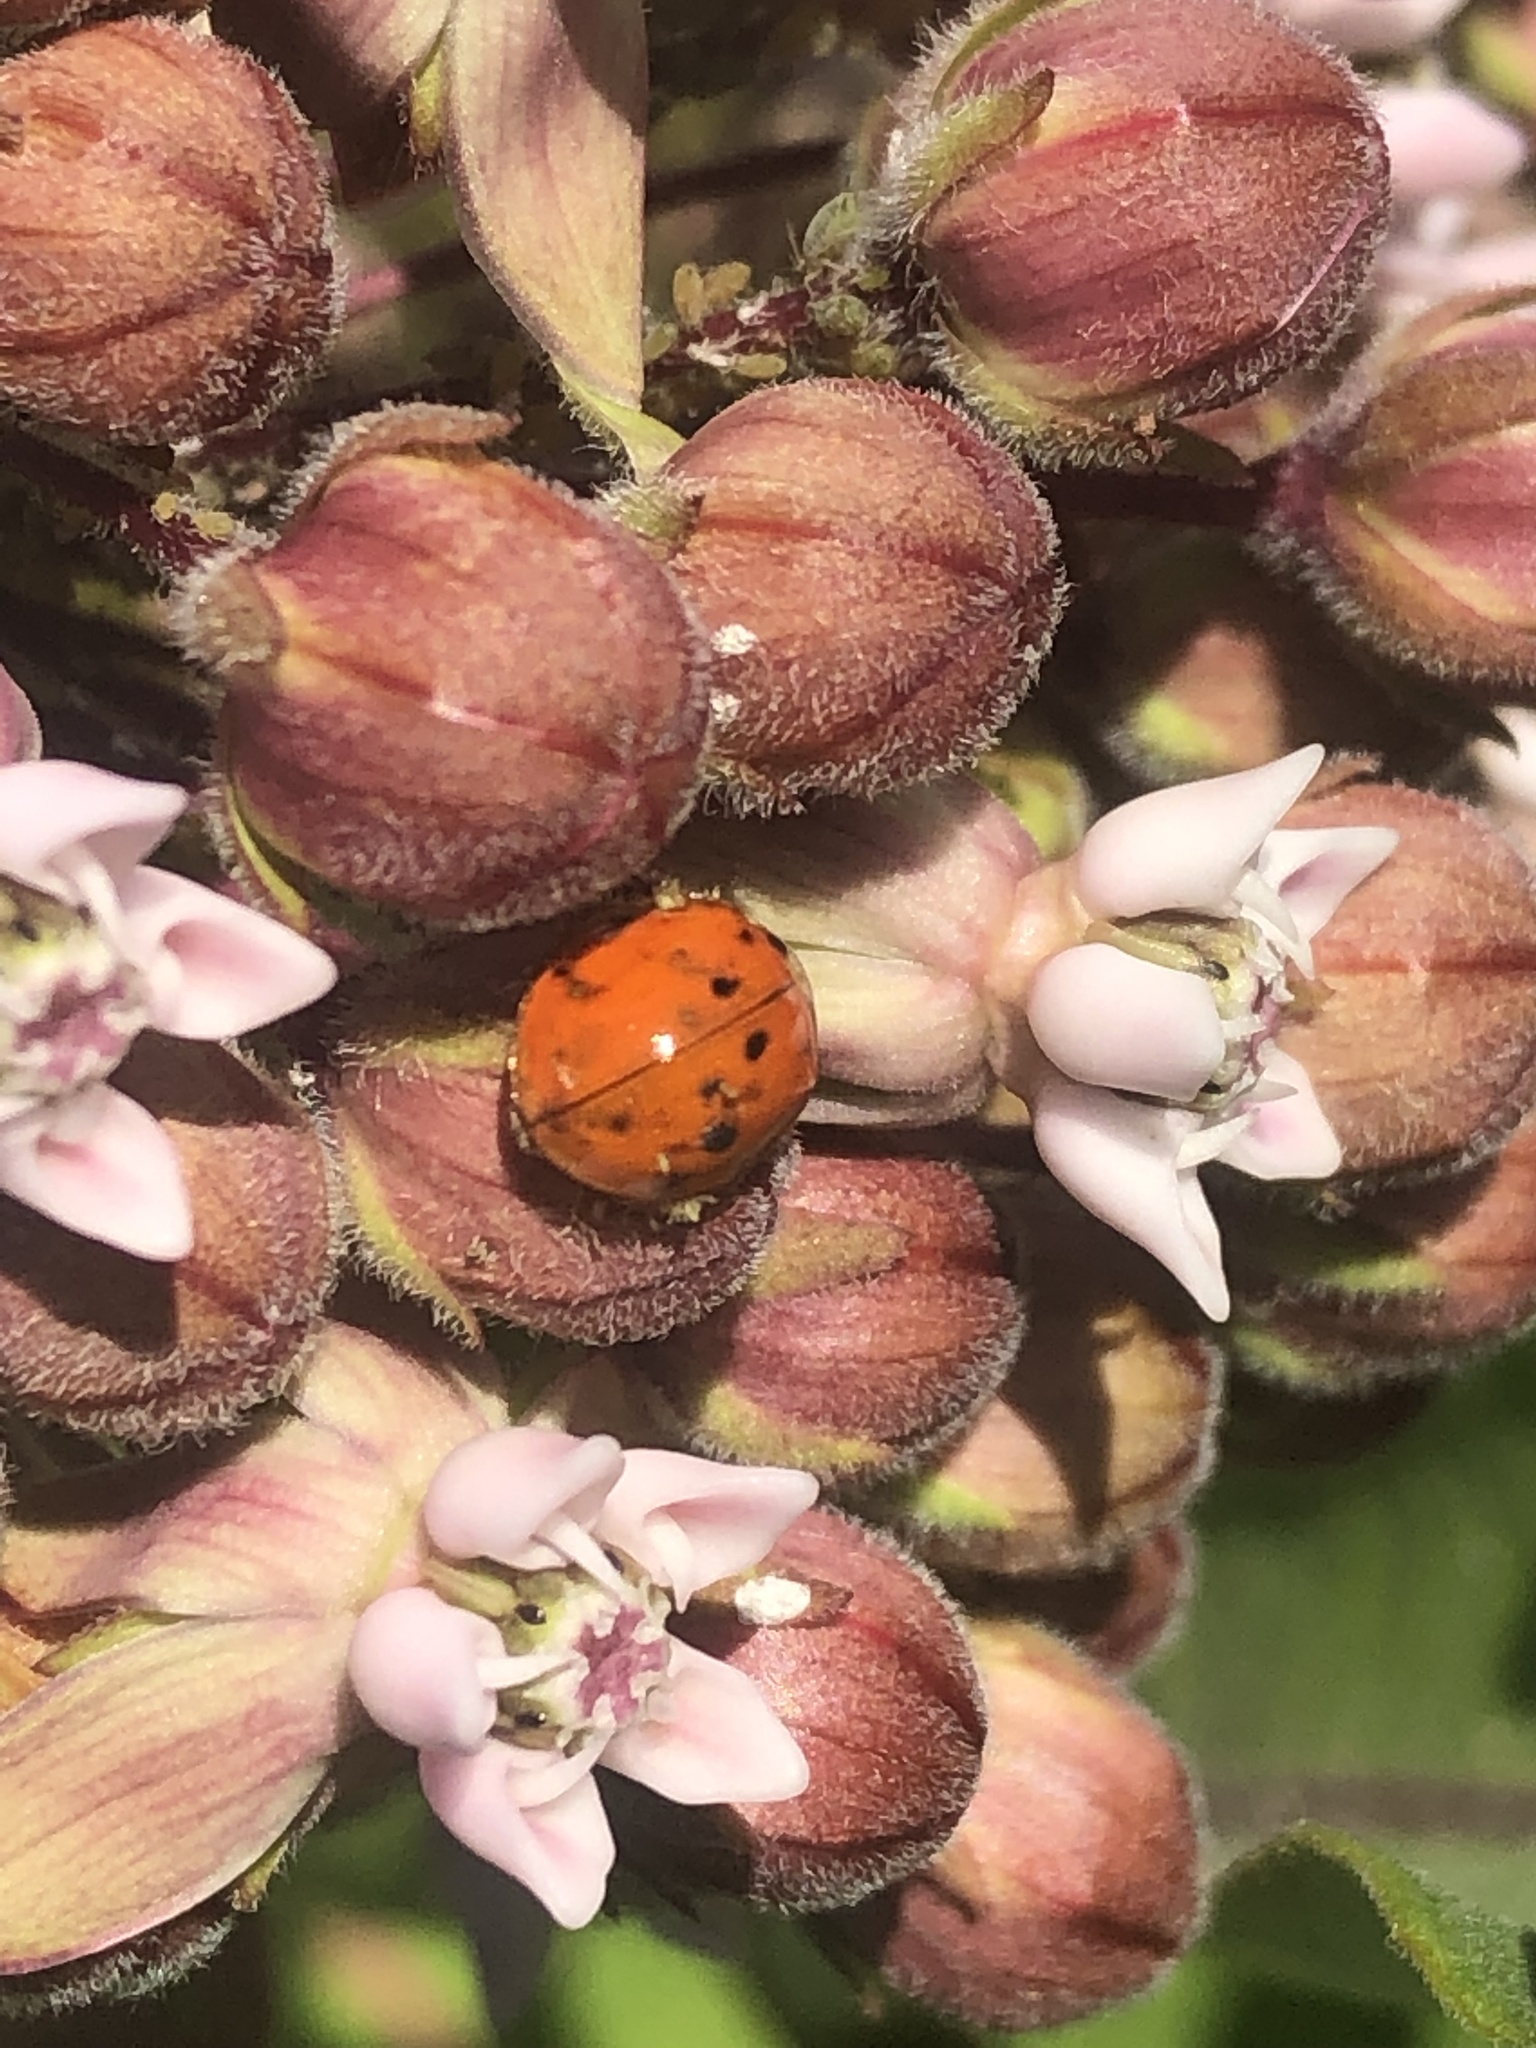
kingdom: Animalia
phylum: Arthropoda
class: Insecta
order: Coleoptera
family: Coccinellidae
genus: Harmonia
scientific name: Harmonia axyridis
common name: Harlequin ladybird
